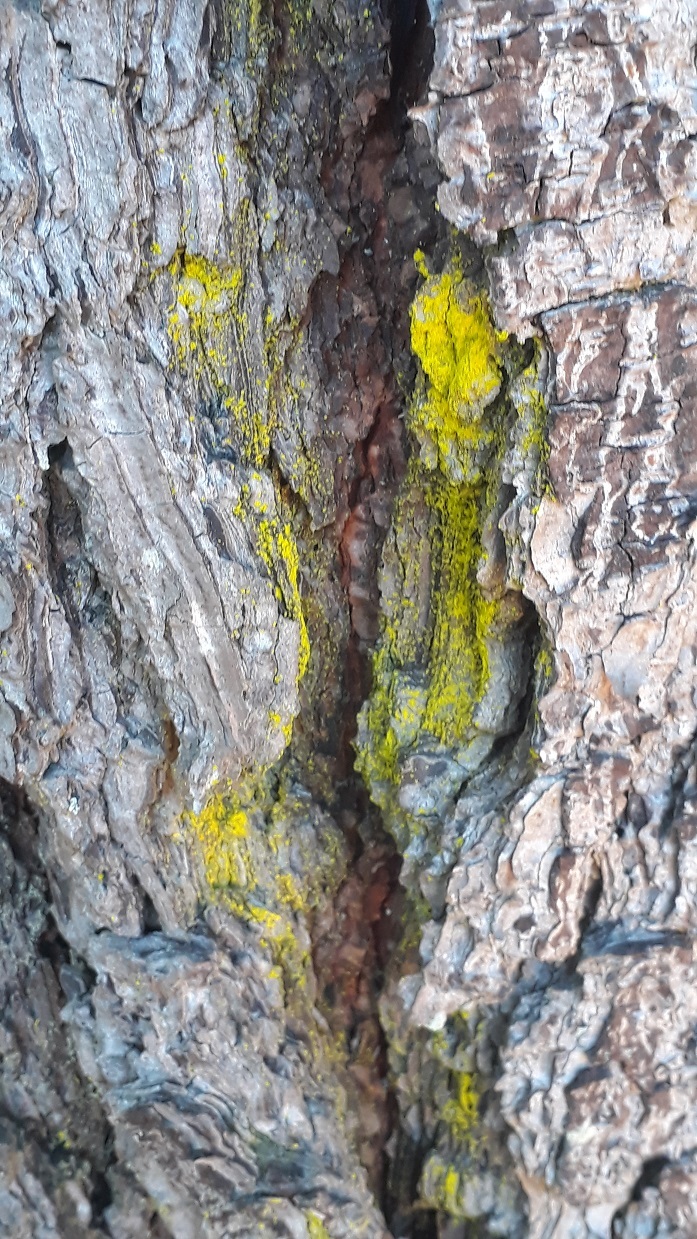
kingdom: Fungi
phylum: Ascomycota
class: Arthoniomycetes
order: Arthoniales
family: Chrysotrichaceae
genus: Chrysothrix
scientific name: Chrysothrix xanthina
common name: Common gold-dust
